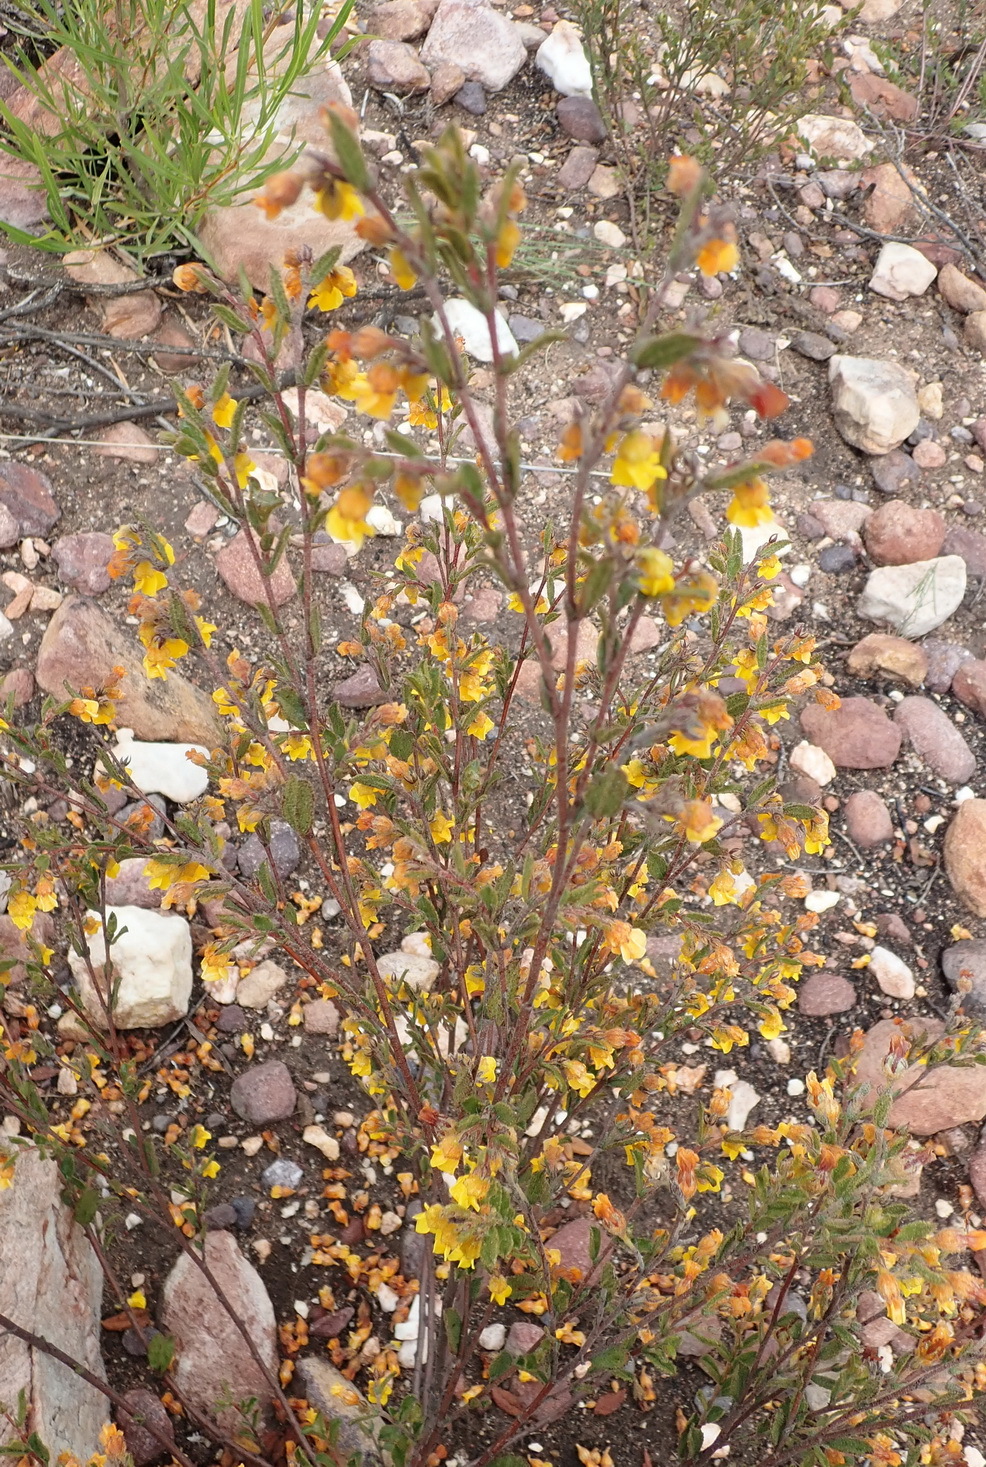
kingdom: Plantae
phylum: Tracheophyta
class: Magnoliopsida
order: Malvales
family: Malvaceae
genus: Hermannia
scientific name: Hermannia decipiens
